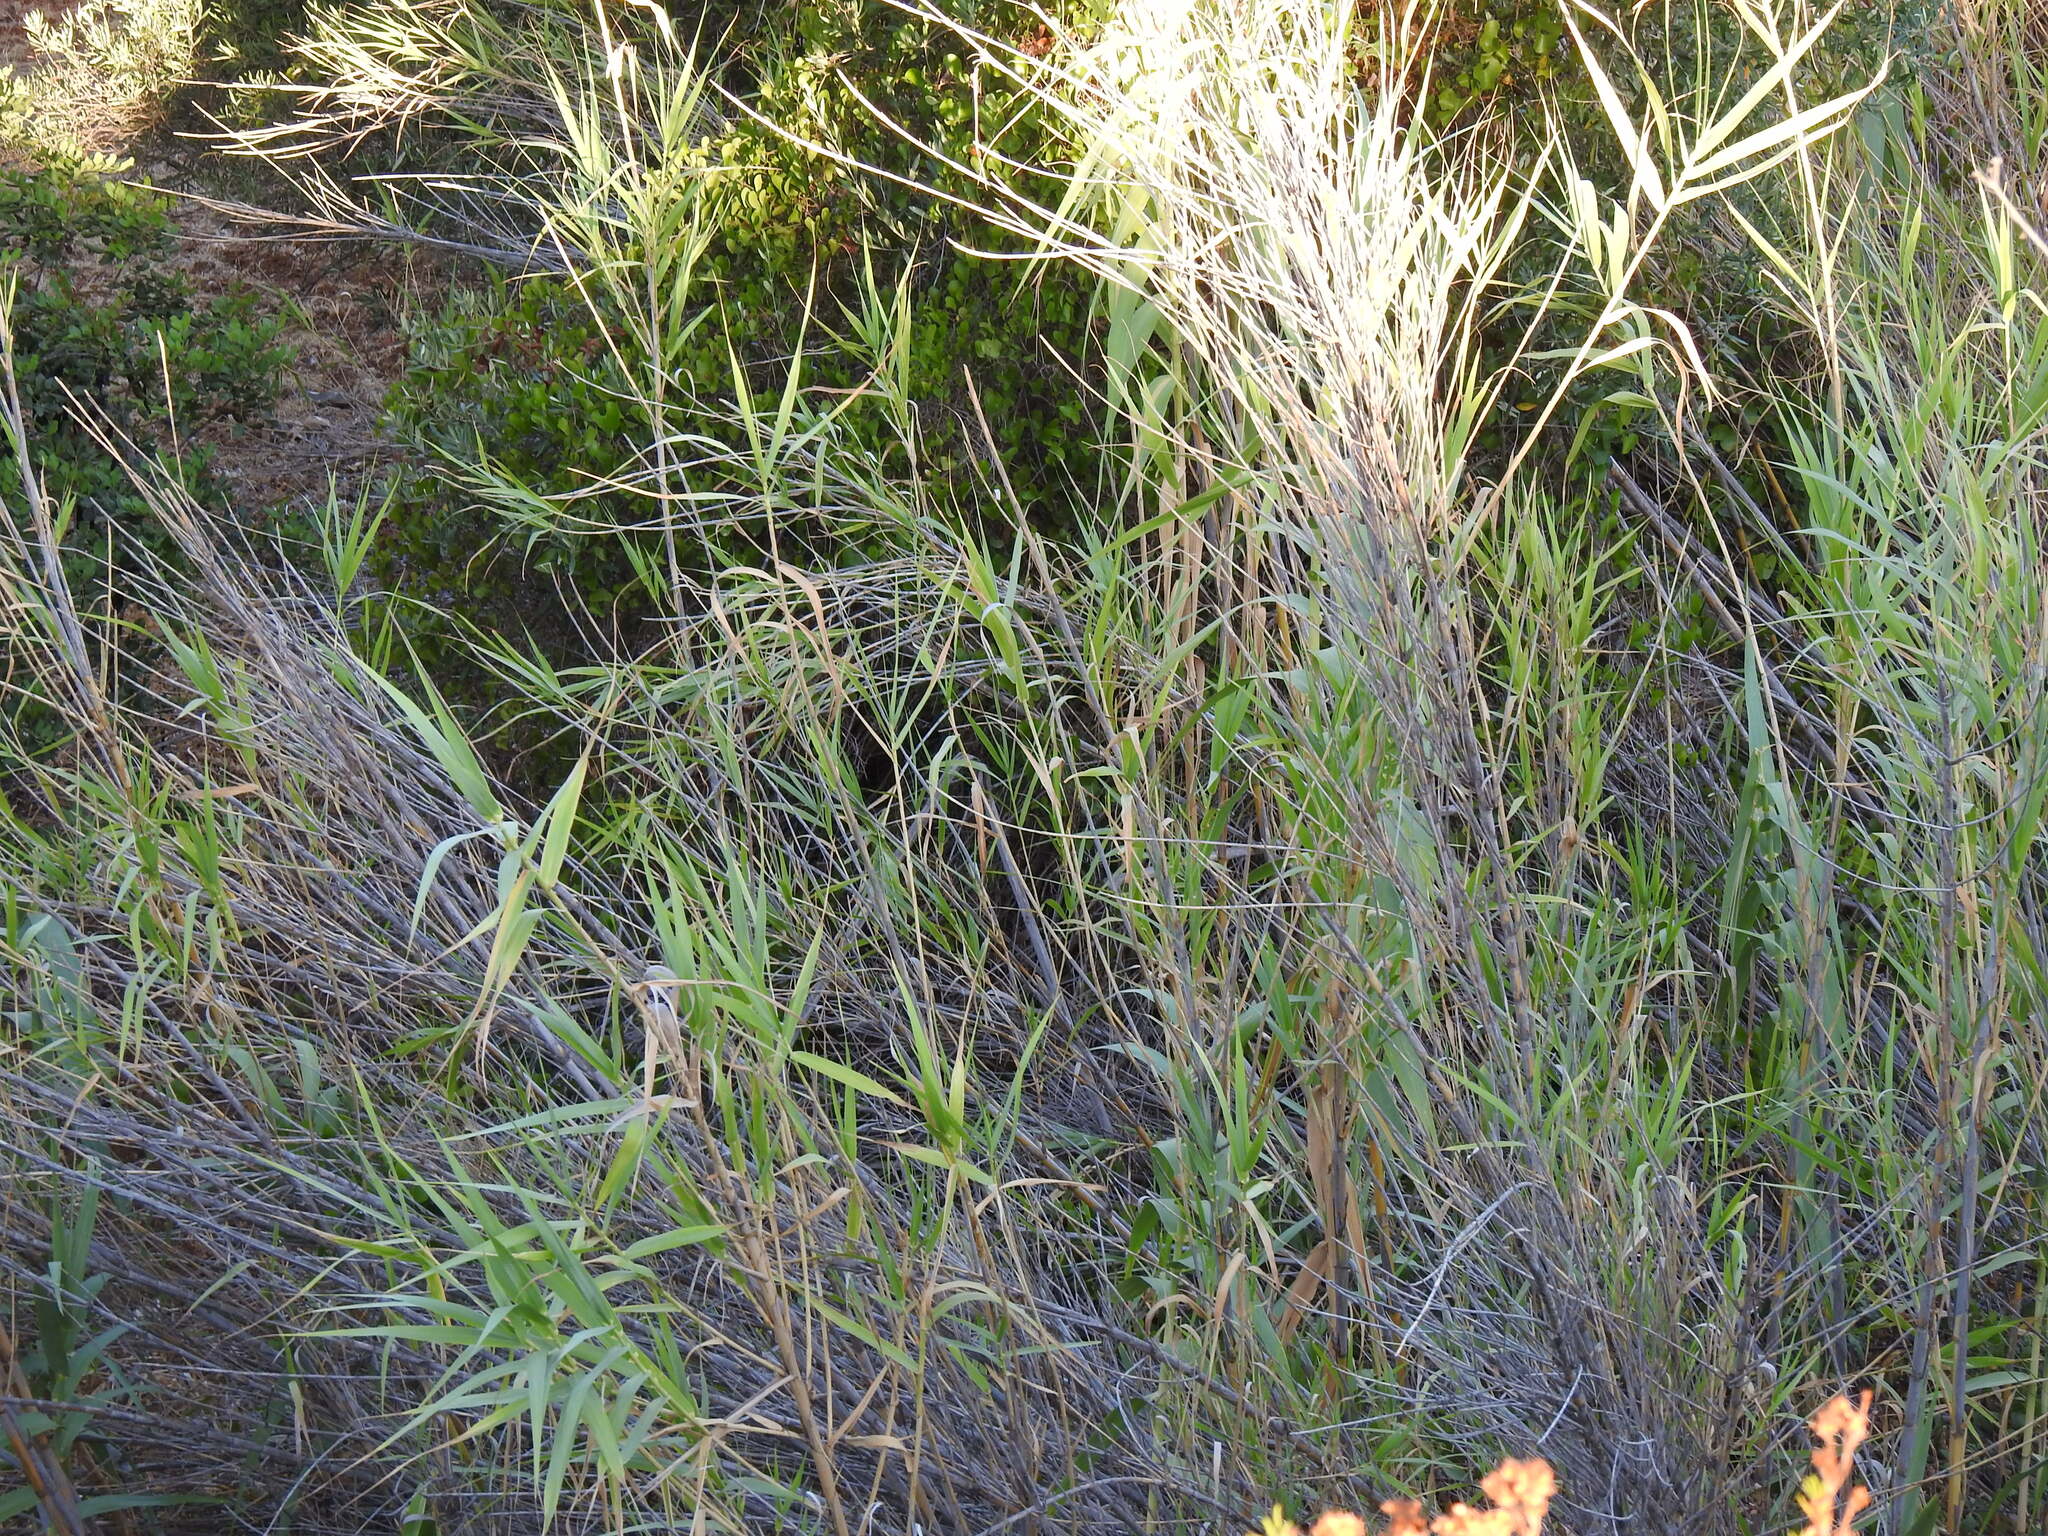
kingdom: Plantae
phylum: Tracheophyta
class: Liliopsida
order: Poales
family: Poaceae
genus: Arundo
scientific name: Arundo donax
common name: Giant reed
